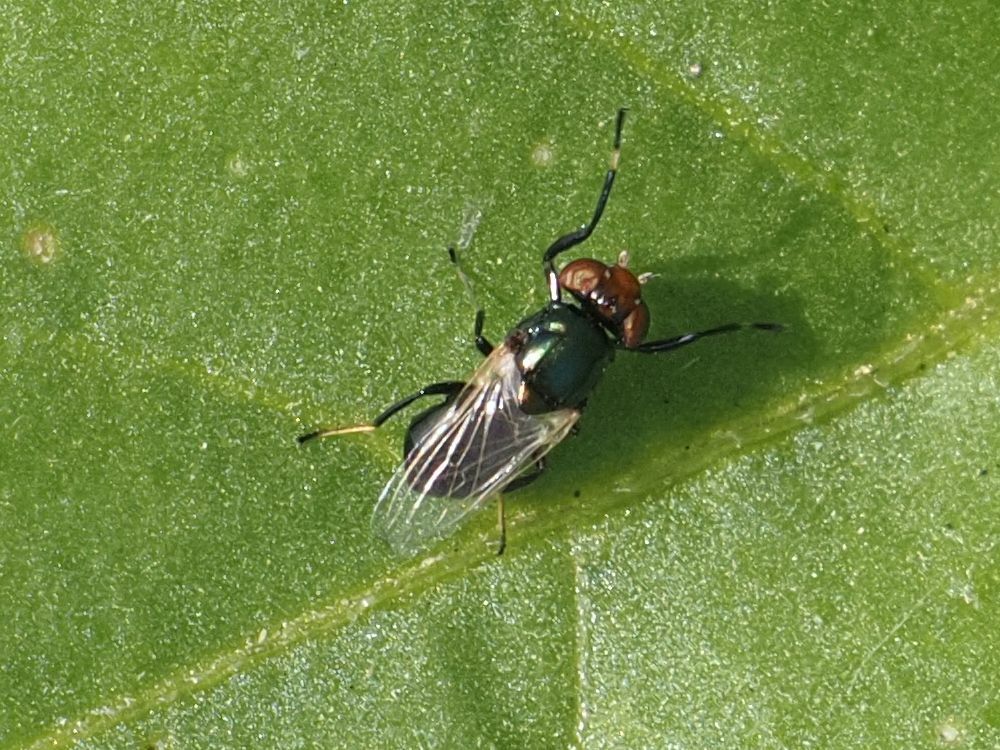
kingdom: Animalia
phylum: Arthropoda
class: Insecta
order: Diptera
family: Ulidiidae
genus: Physiphora
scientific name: Physiphora alceae
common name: Picture-winged fly
